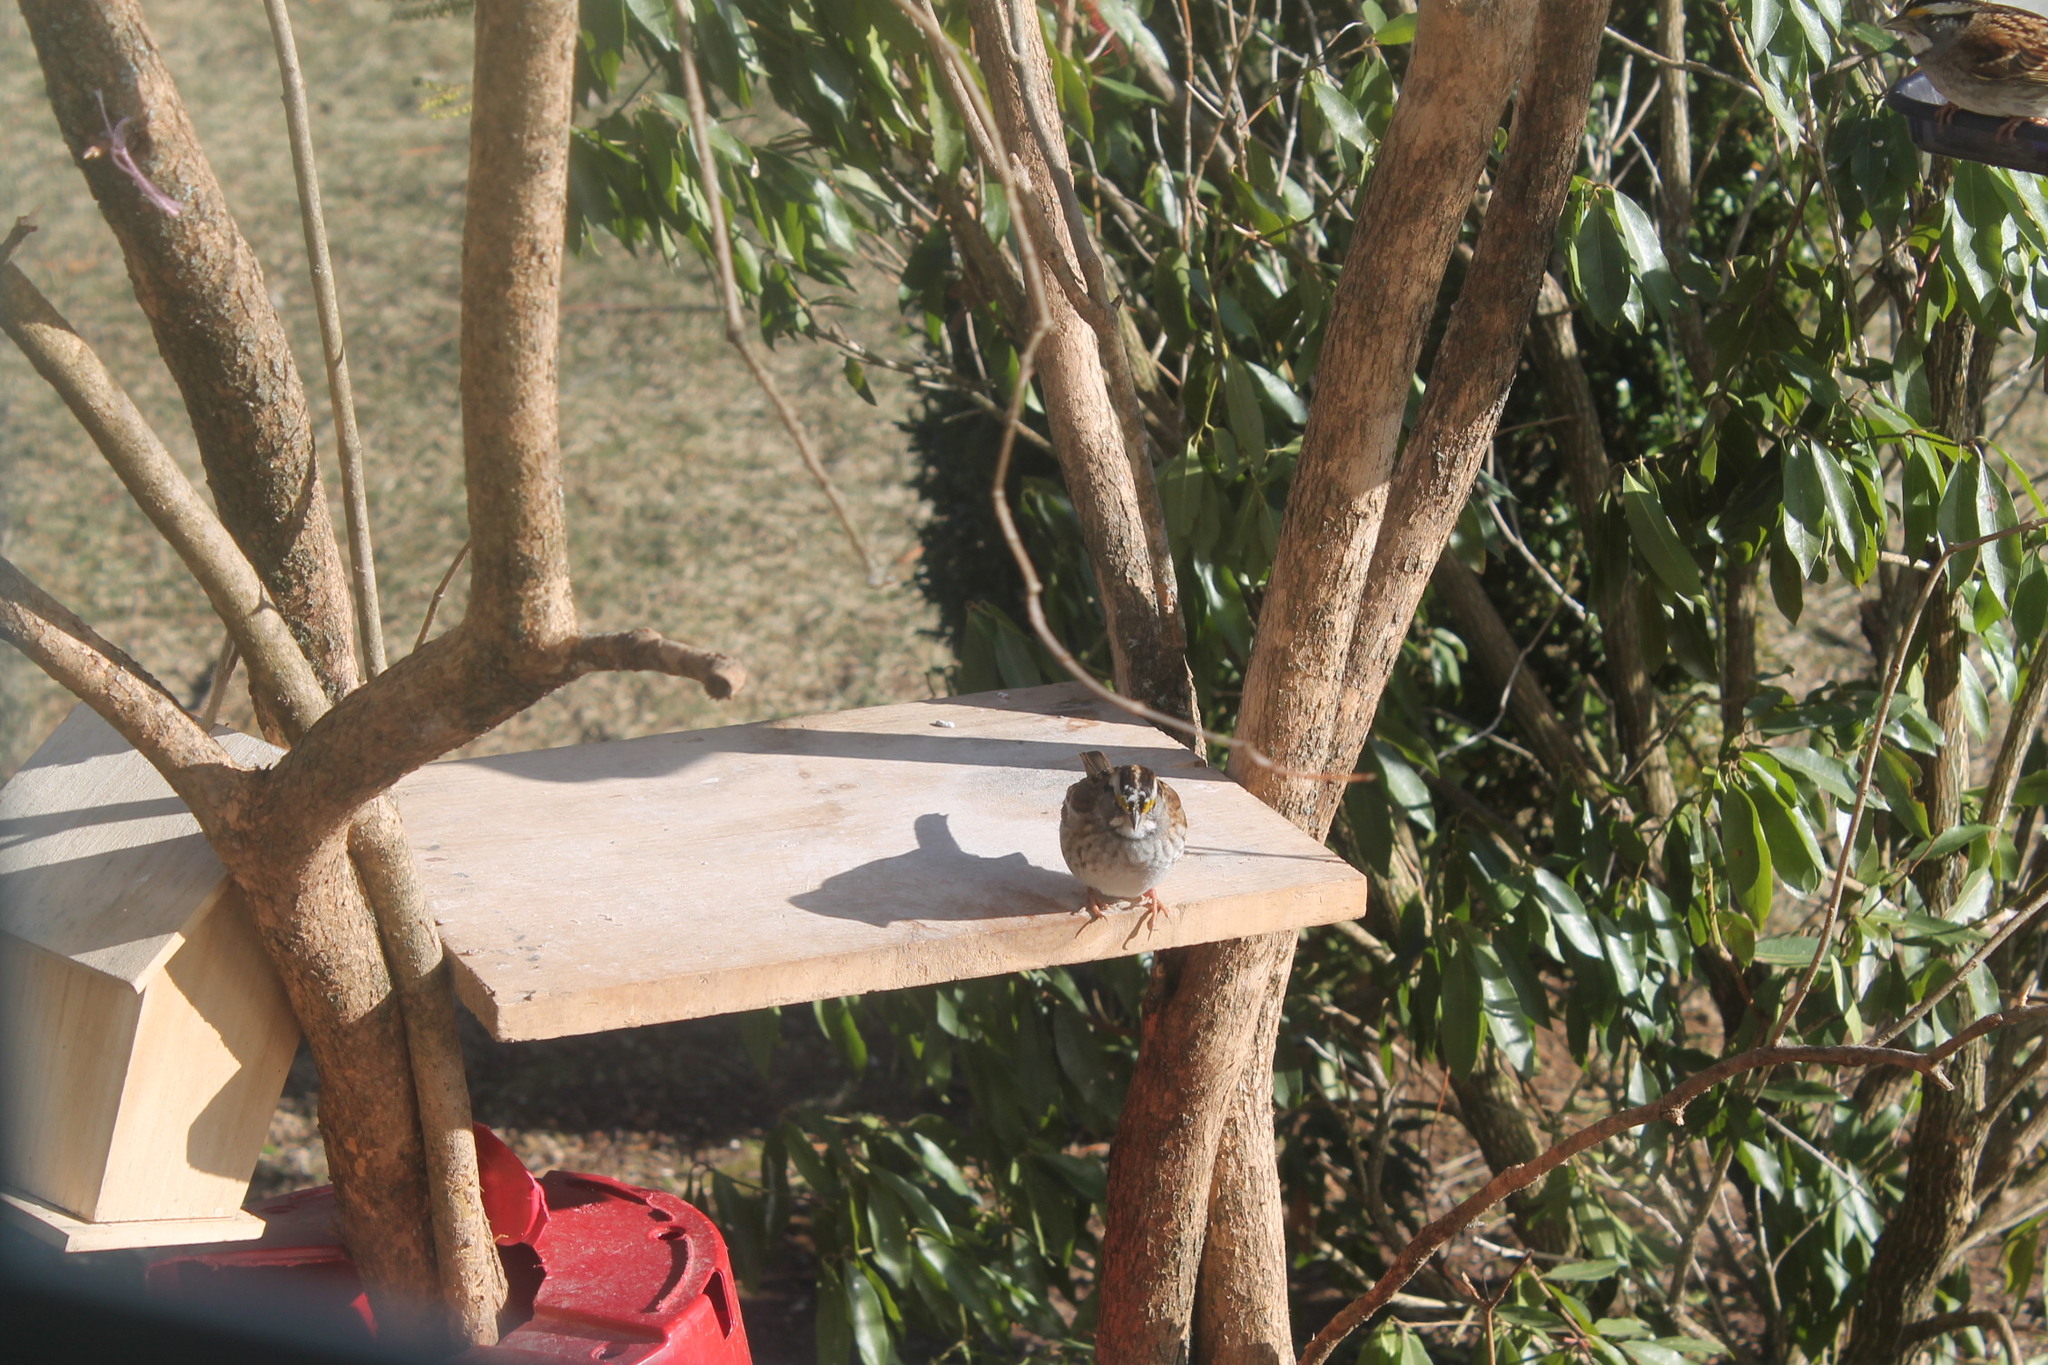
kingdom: Animalia
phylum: Chordata
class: Aves
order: Passeriformes
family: Passerellidae
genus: Zonotrichia
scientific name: Zonotrichia albicollis
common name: White-throated sparrow
